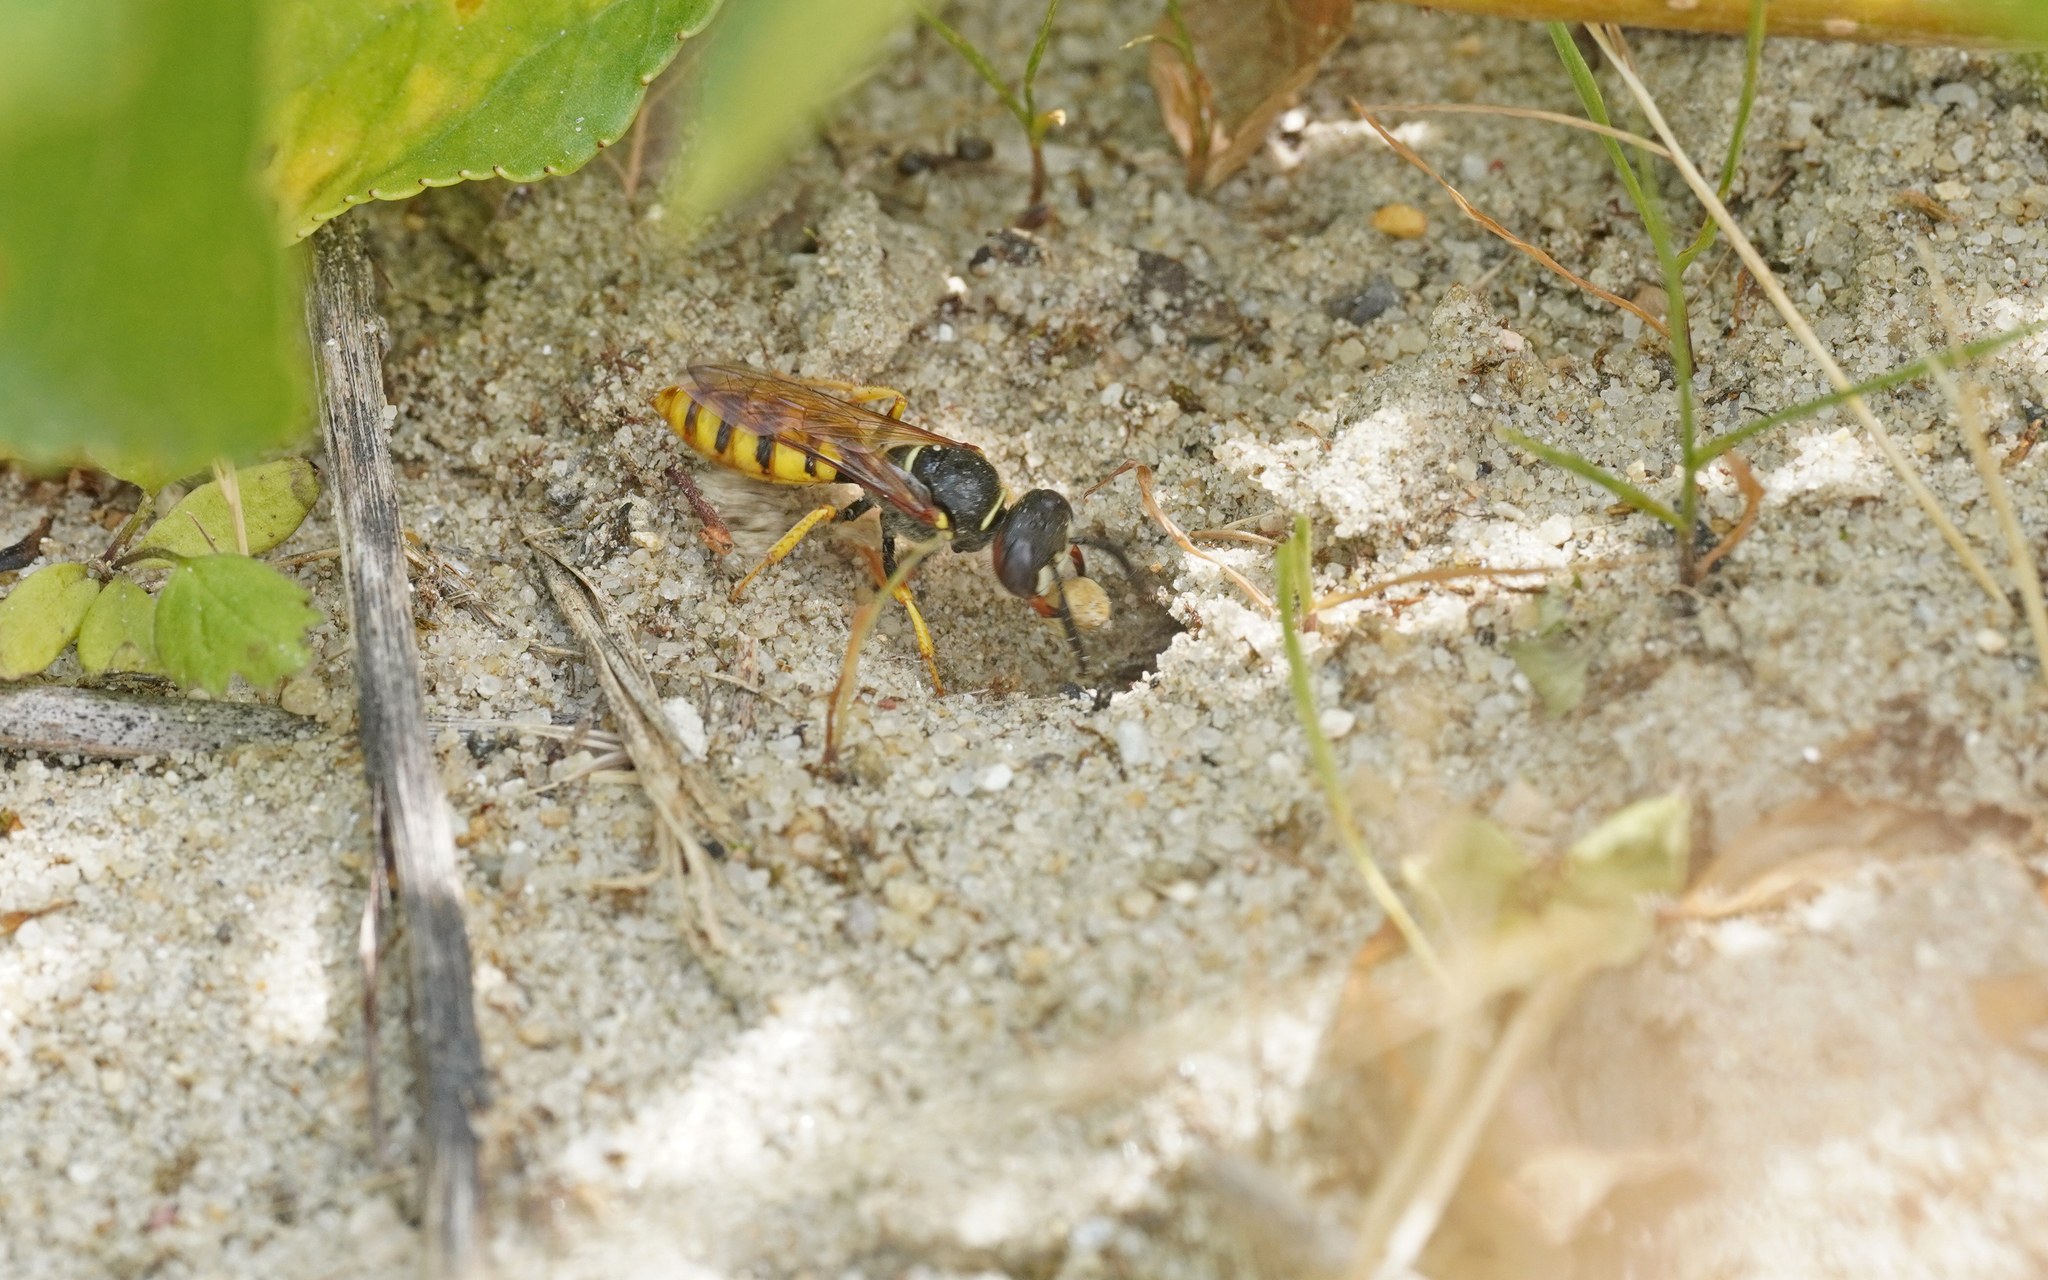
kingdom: Animalia
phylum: Arthropoda
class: Insecta
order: Hymenoptera
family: Crabronidae
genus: Philanthus
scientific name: Philanthus triangulum
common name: Bee wolf
